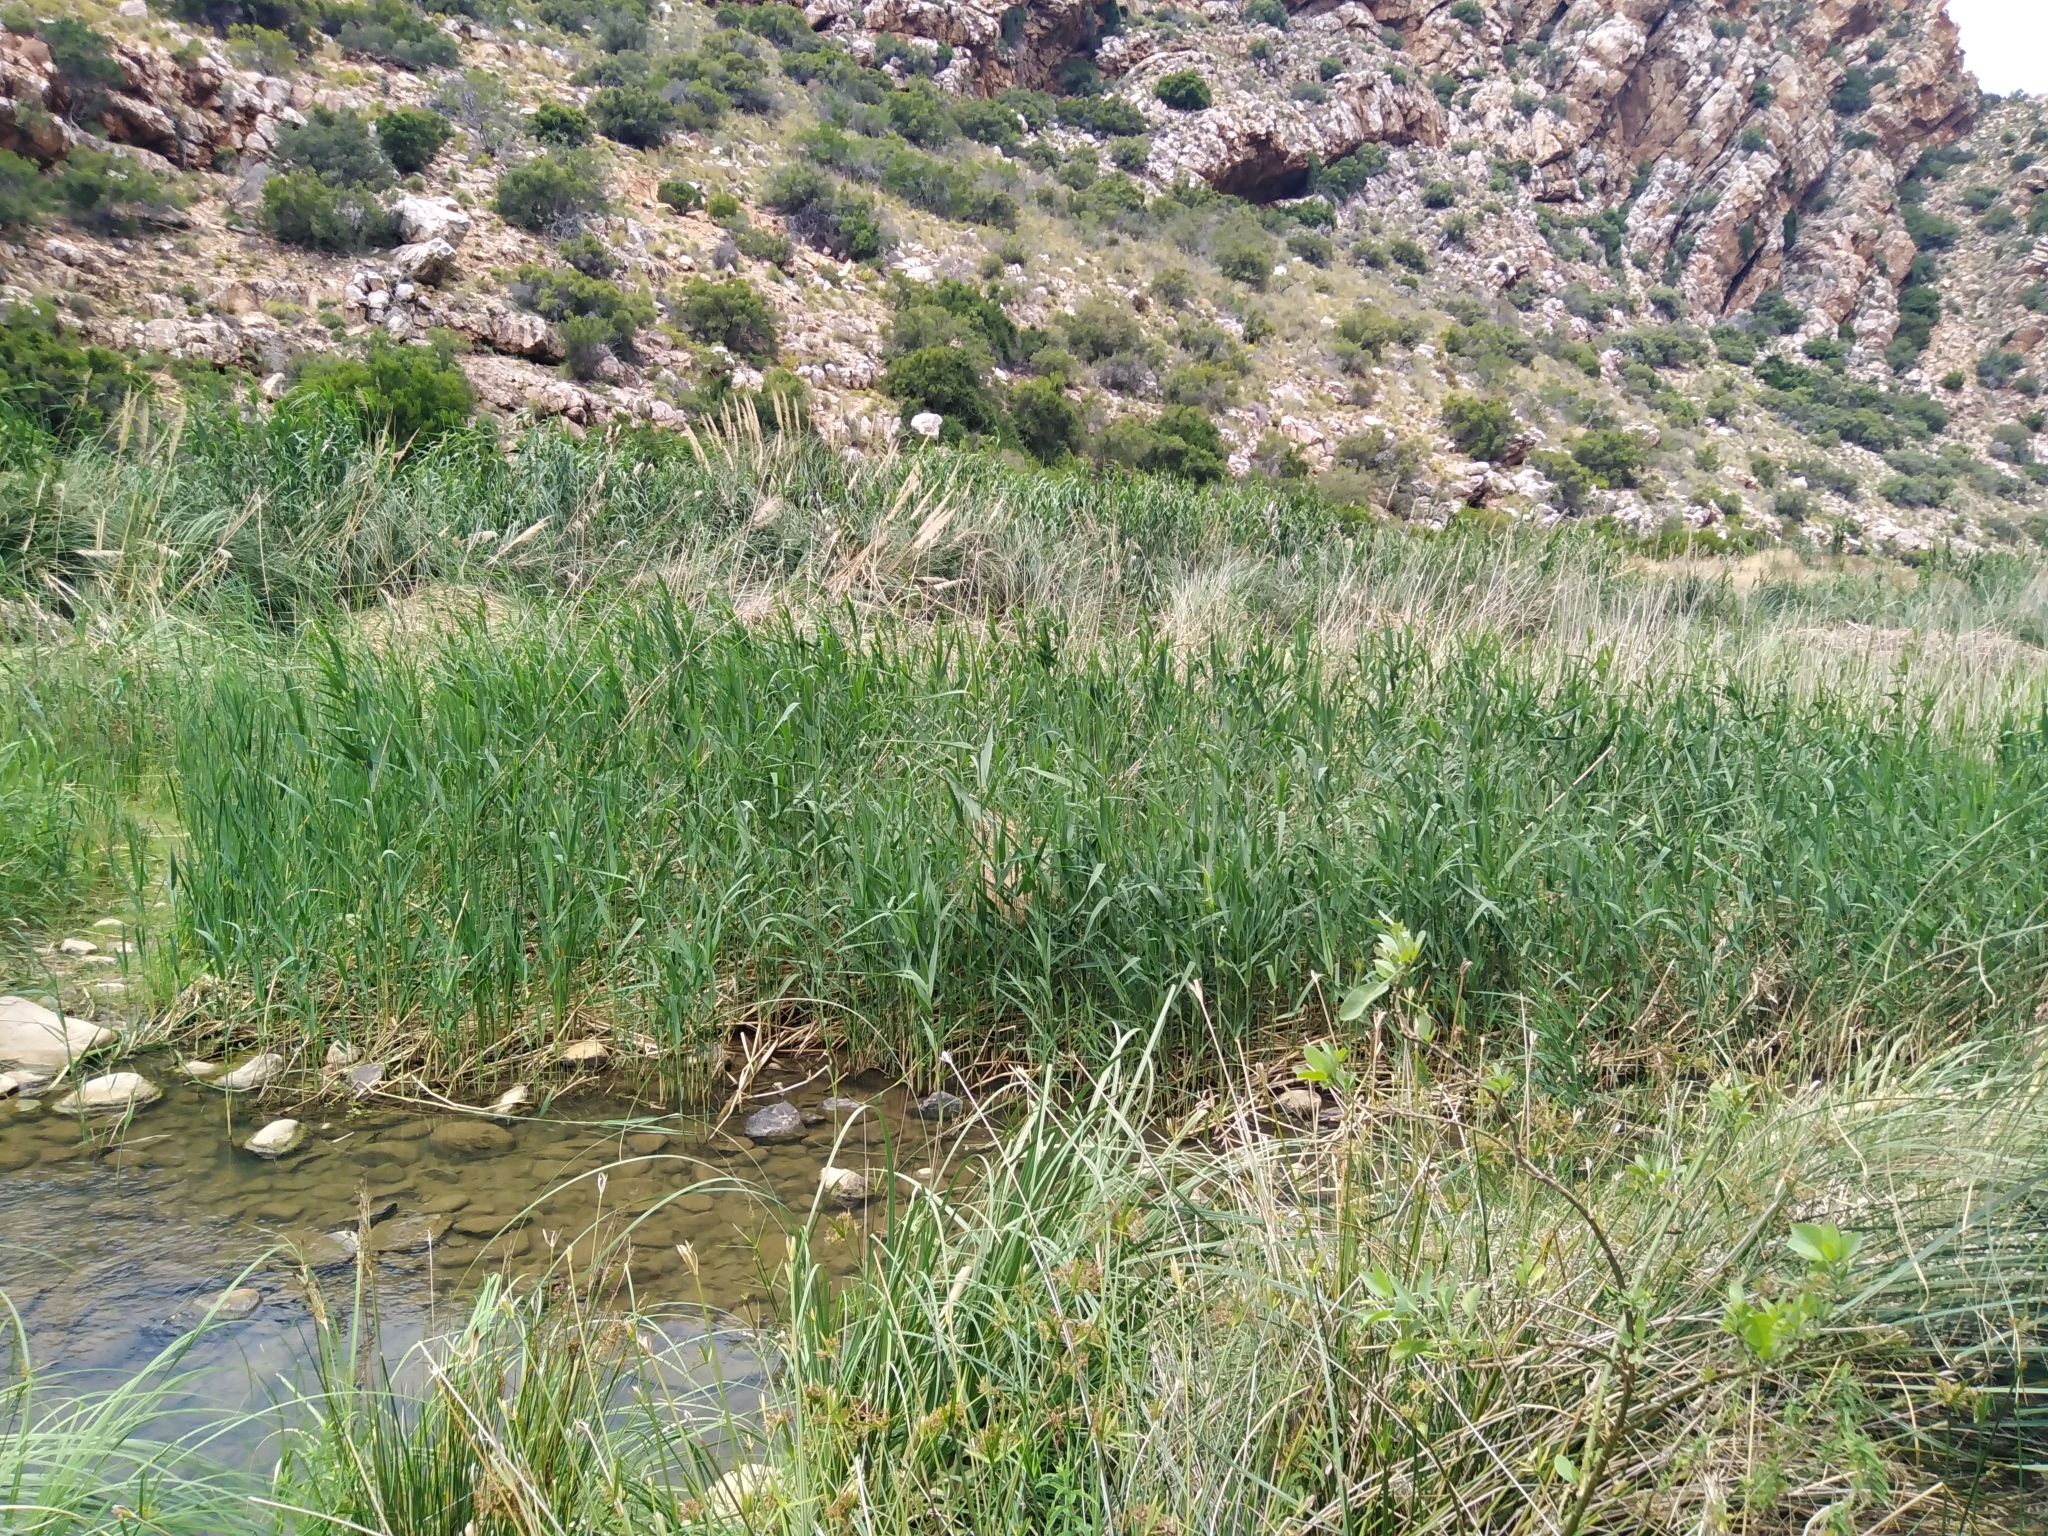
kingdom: Plantae
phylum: Tracheophyta
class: Liliopsida
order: Poales
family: Poaceae
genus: Phragmites
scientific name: Phragmites australis
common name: Common reed
